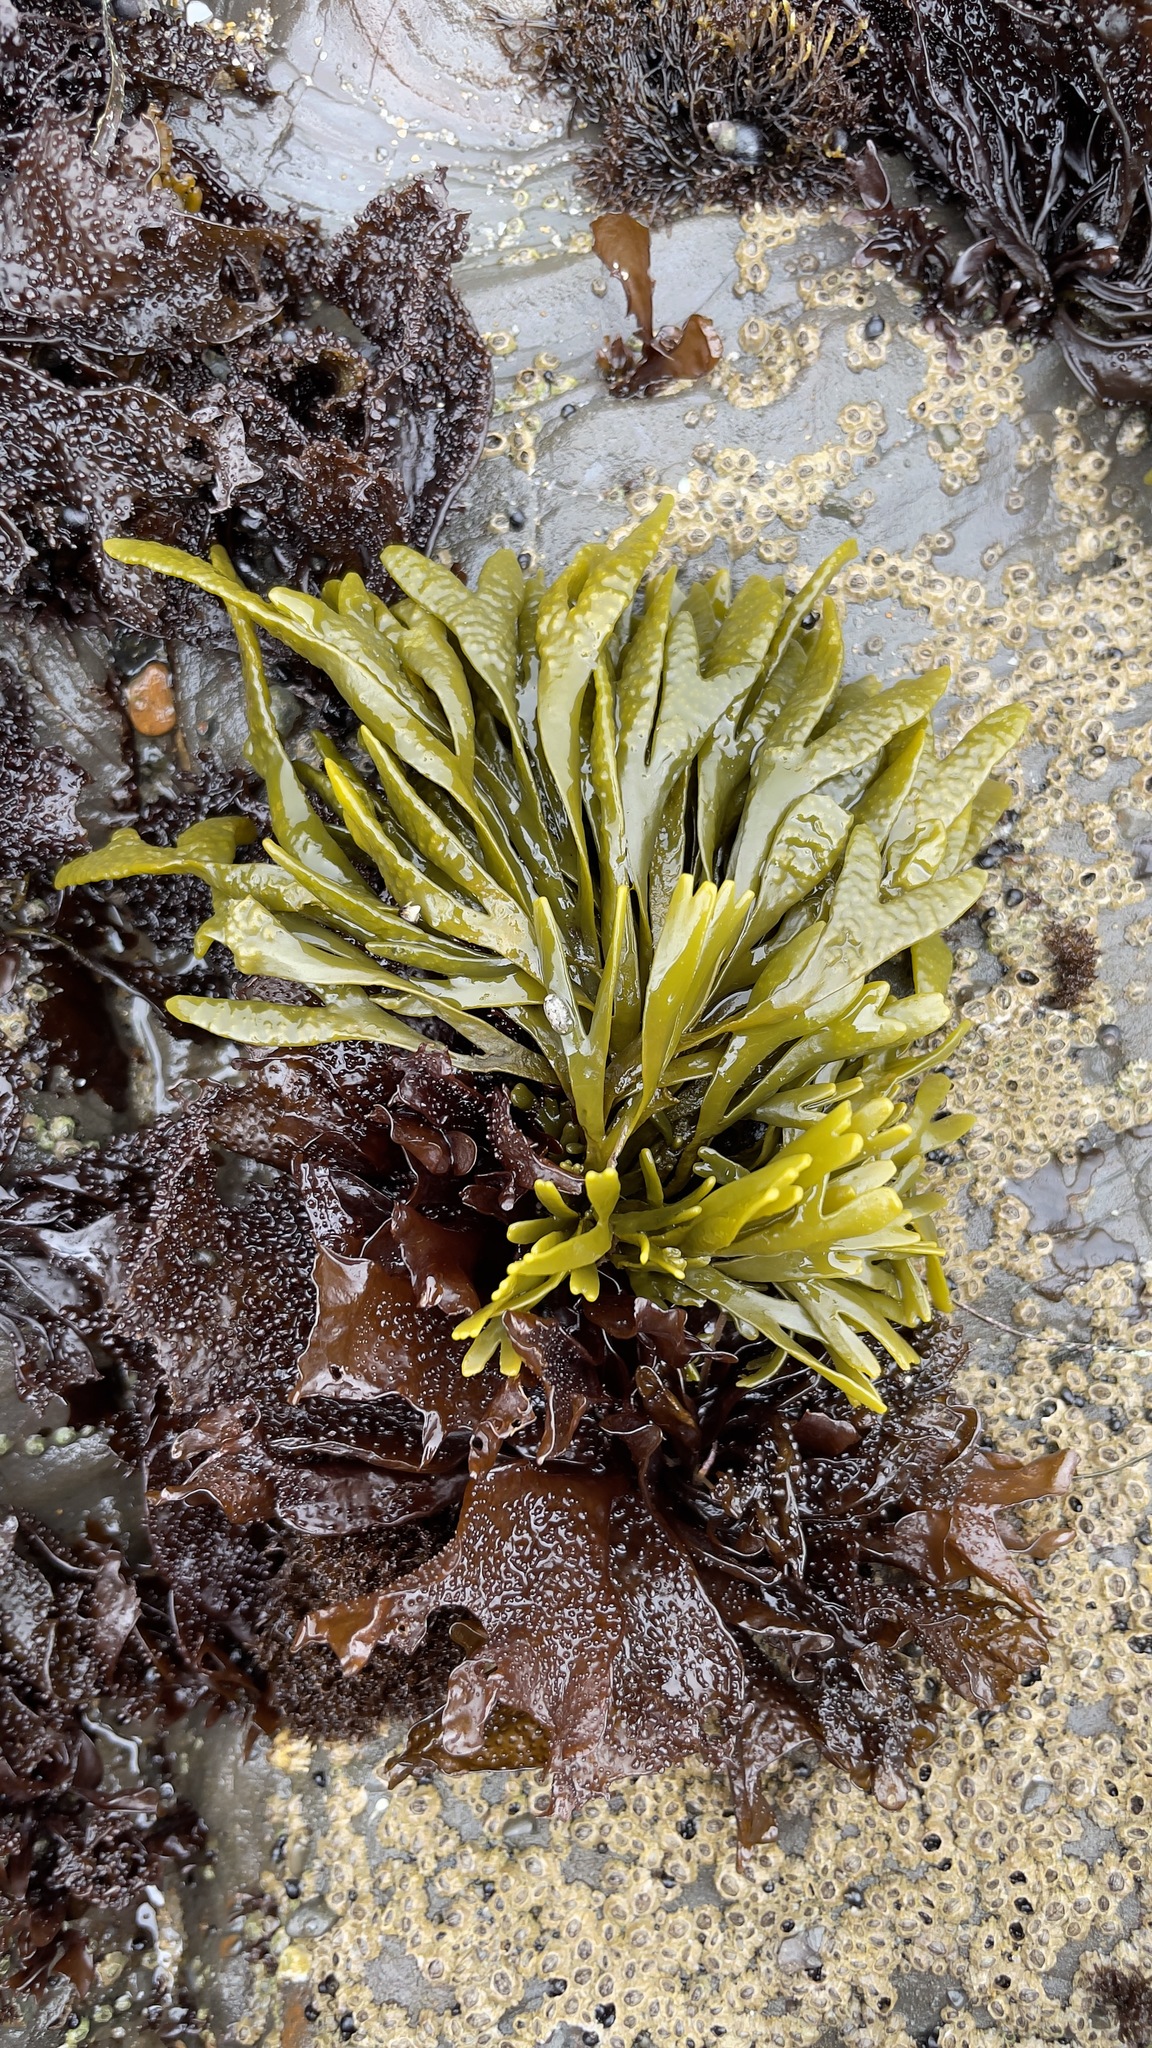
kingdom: Chromista
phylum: Ochrophyta
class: Phaeophyceae
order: Fucales
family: Fucaceae
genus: Pelvetiopsis
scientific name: Pelvetiopsis limitata
